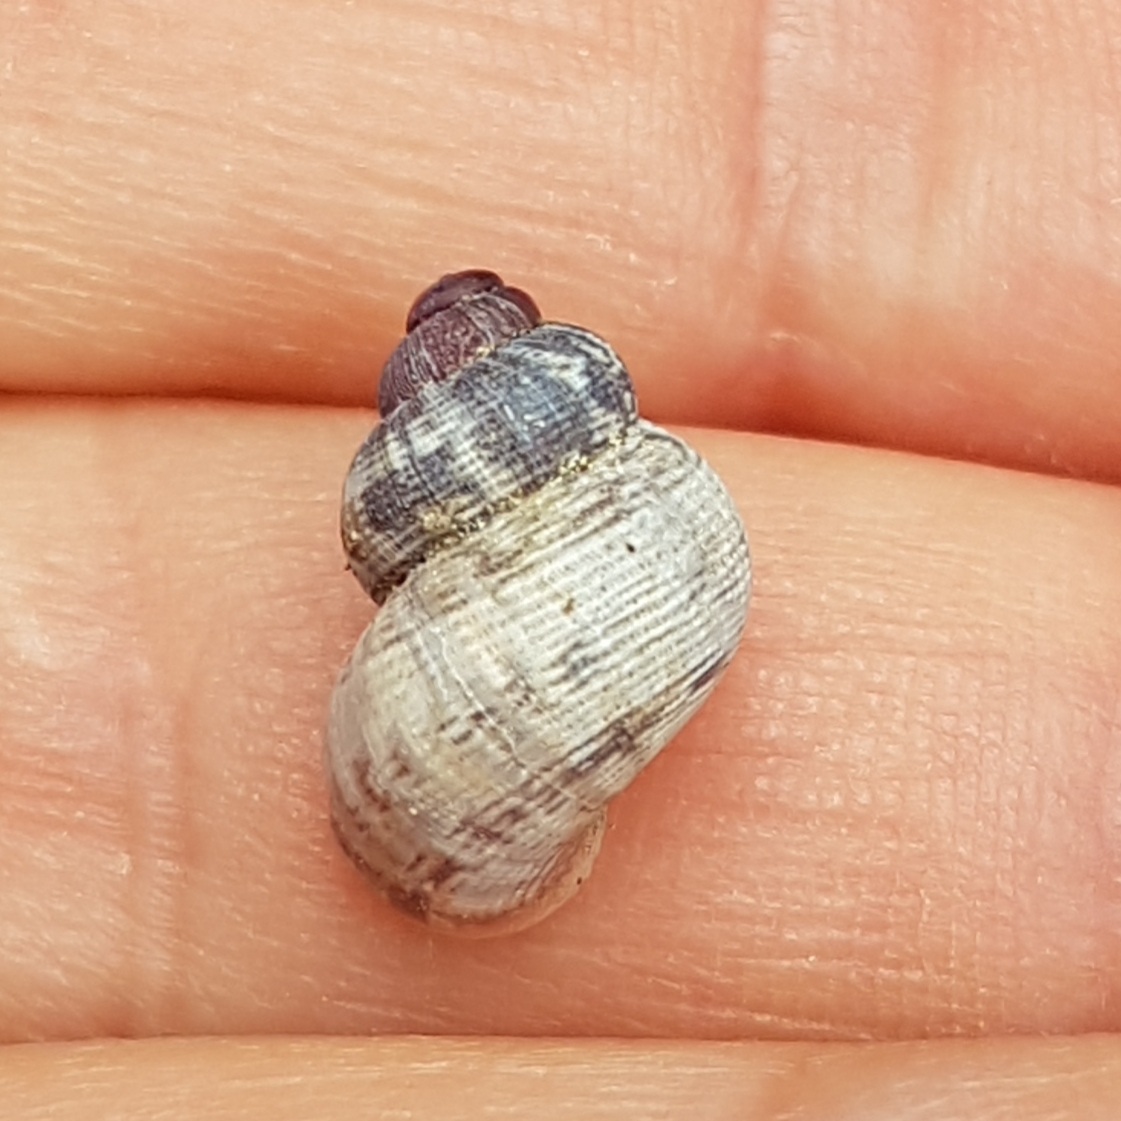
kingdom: Animalia
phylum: Mollusca
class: Gastropoda
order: Littorinimorpha
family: Pomatiidae
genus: Pomatias
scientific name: Pomatias elegans
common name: Red-mouthed snail
